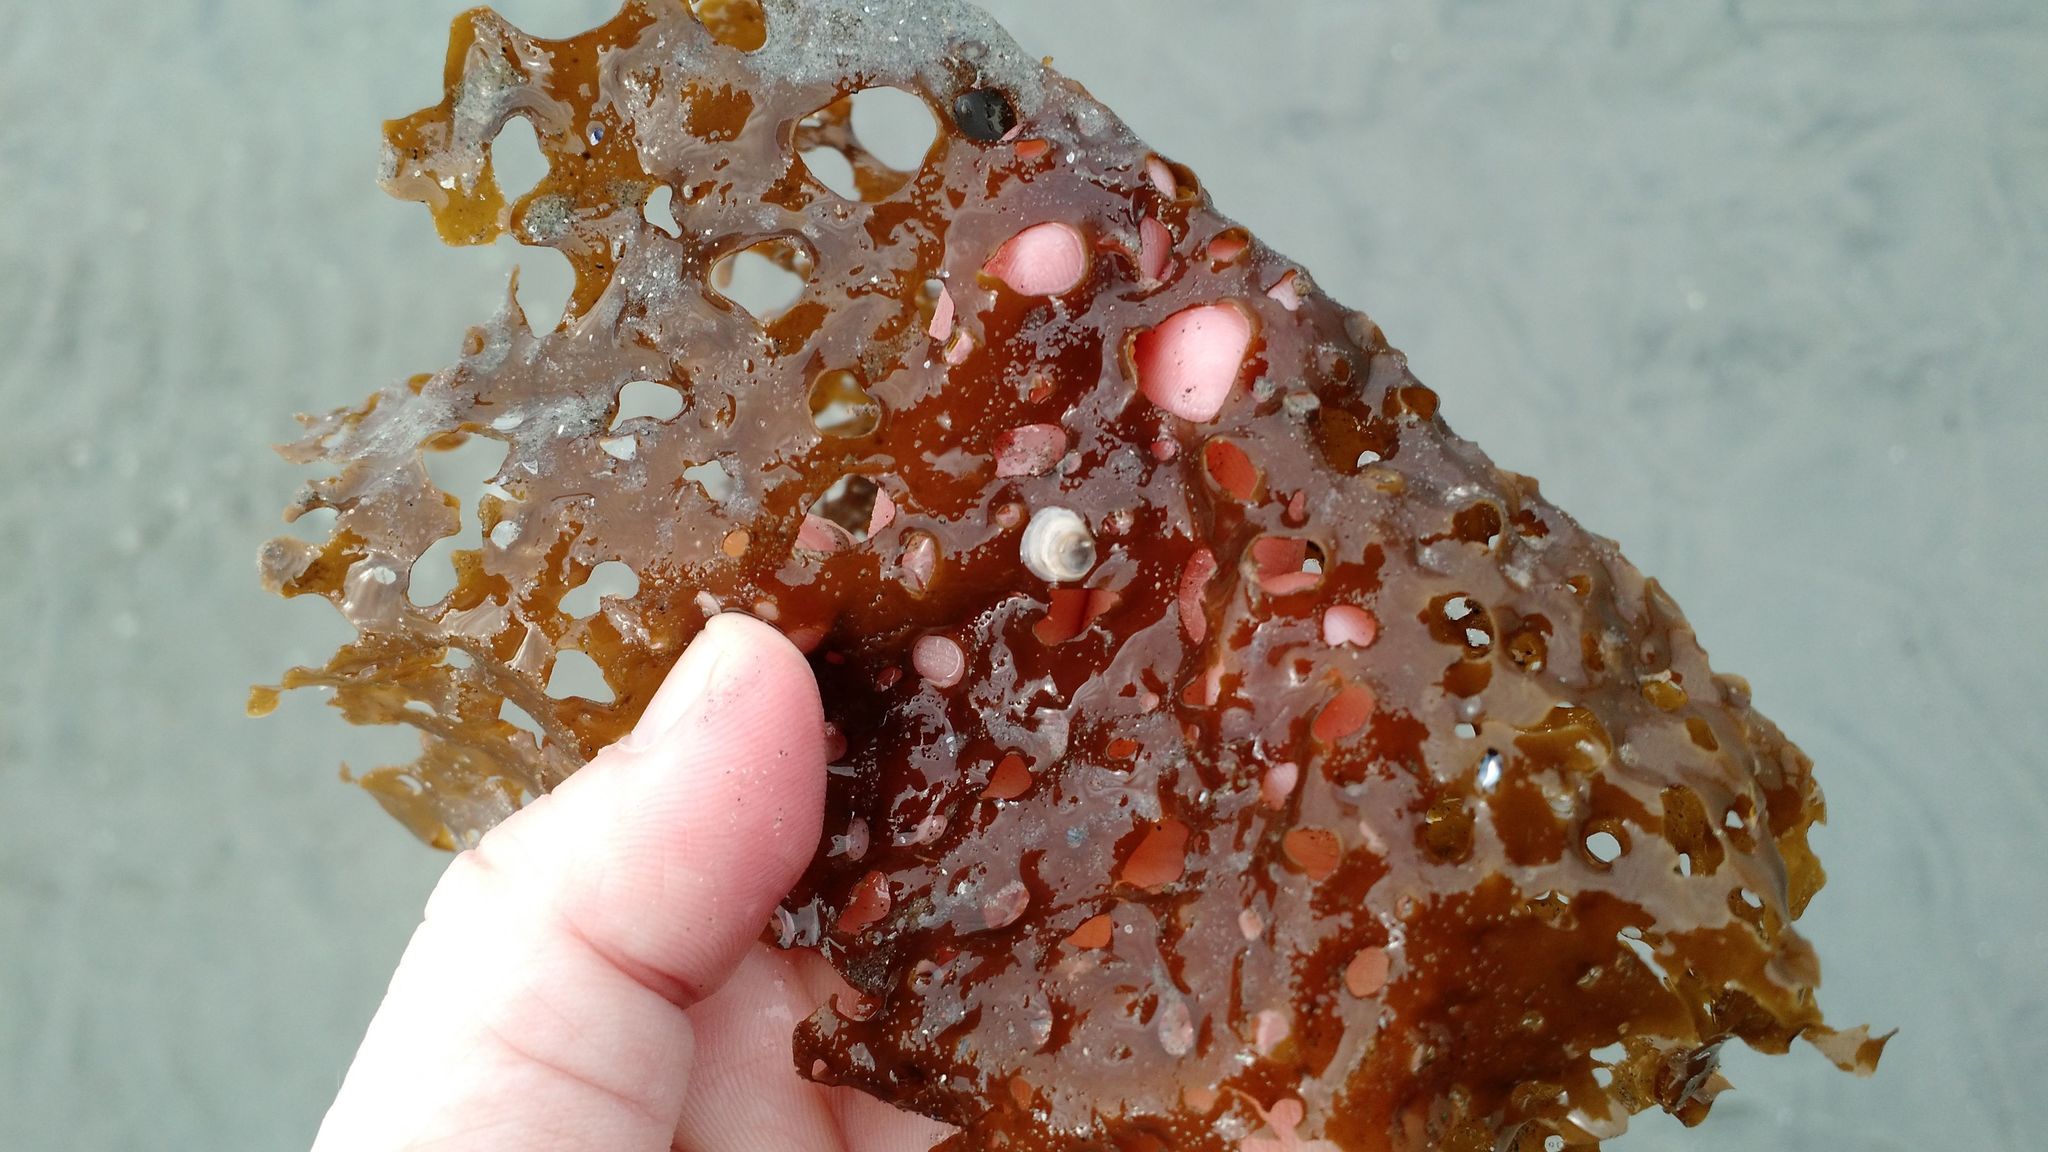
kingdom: Chromista
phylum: Ochrophyta
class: Phaeophyceae
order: Laminariales
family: Costariaceae
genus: Agarum
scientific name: Agarum clathratum
